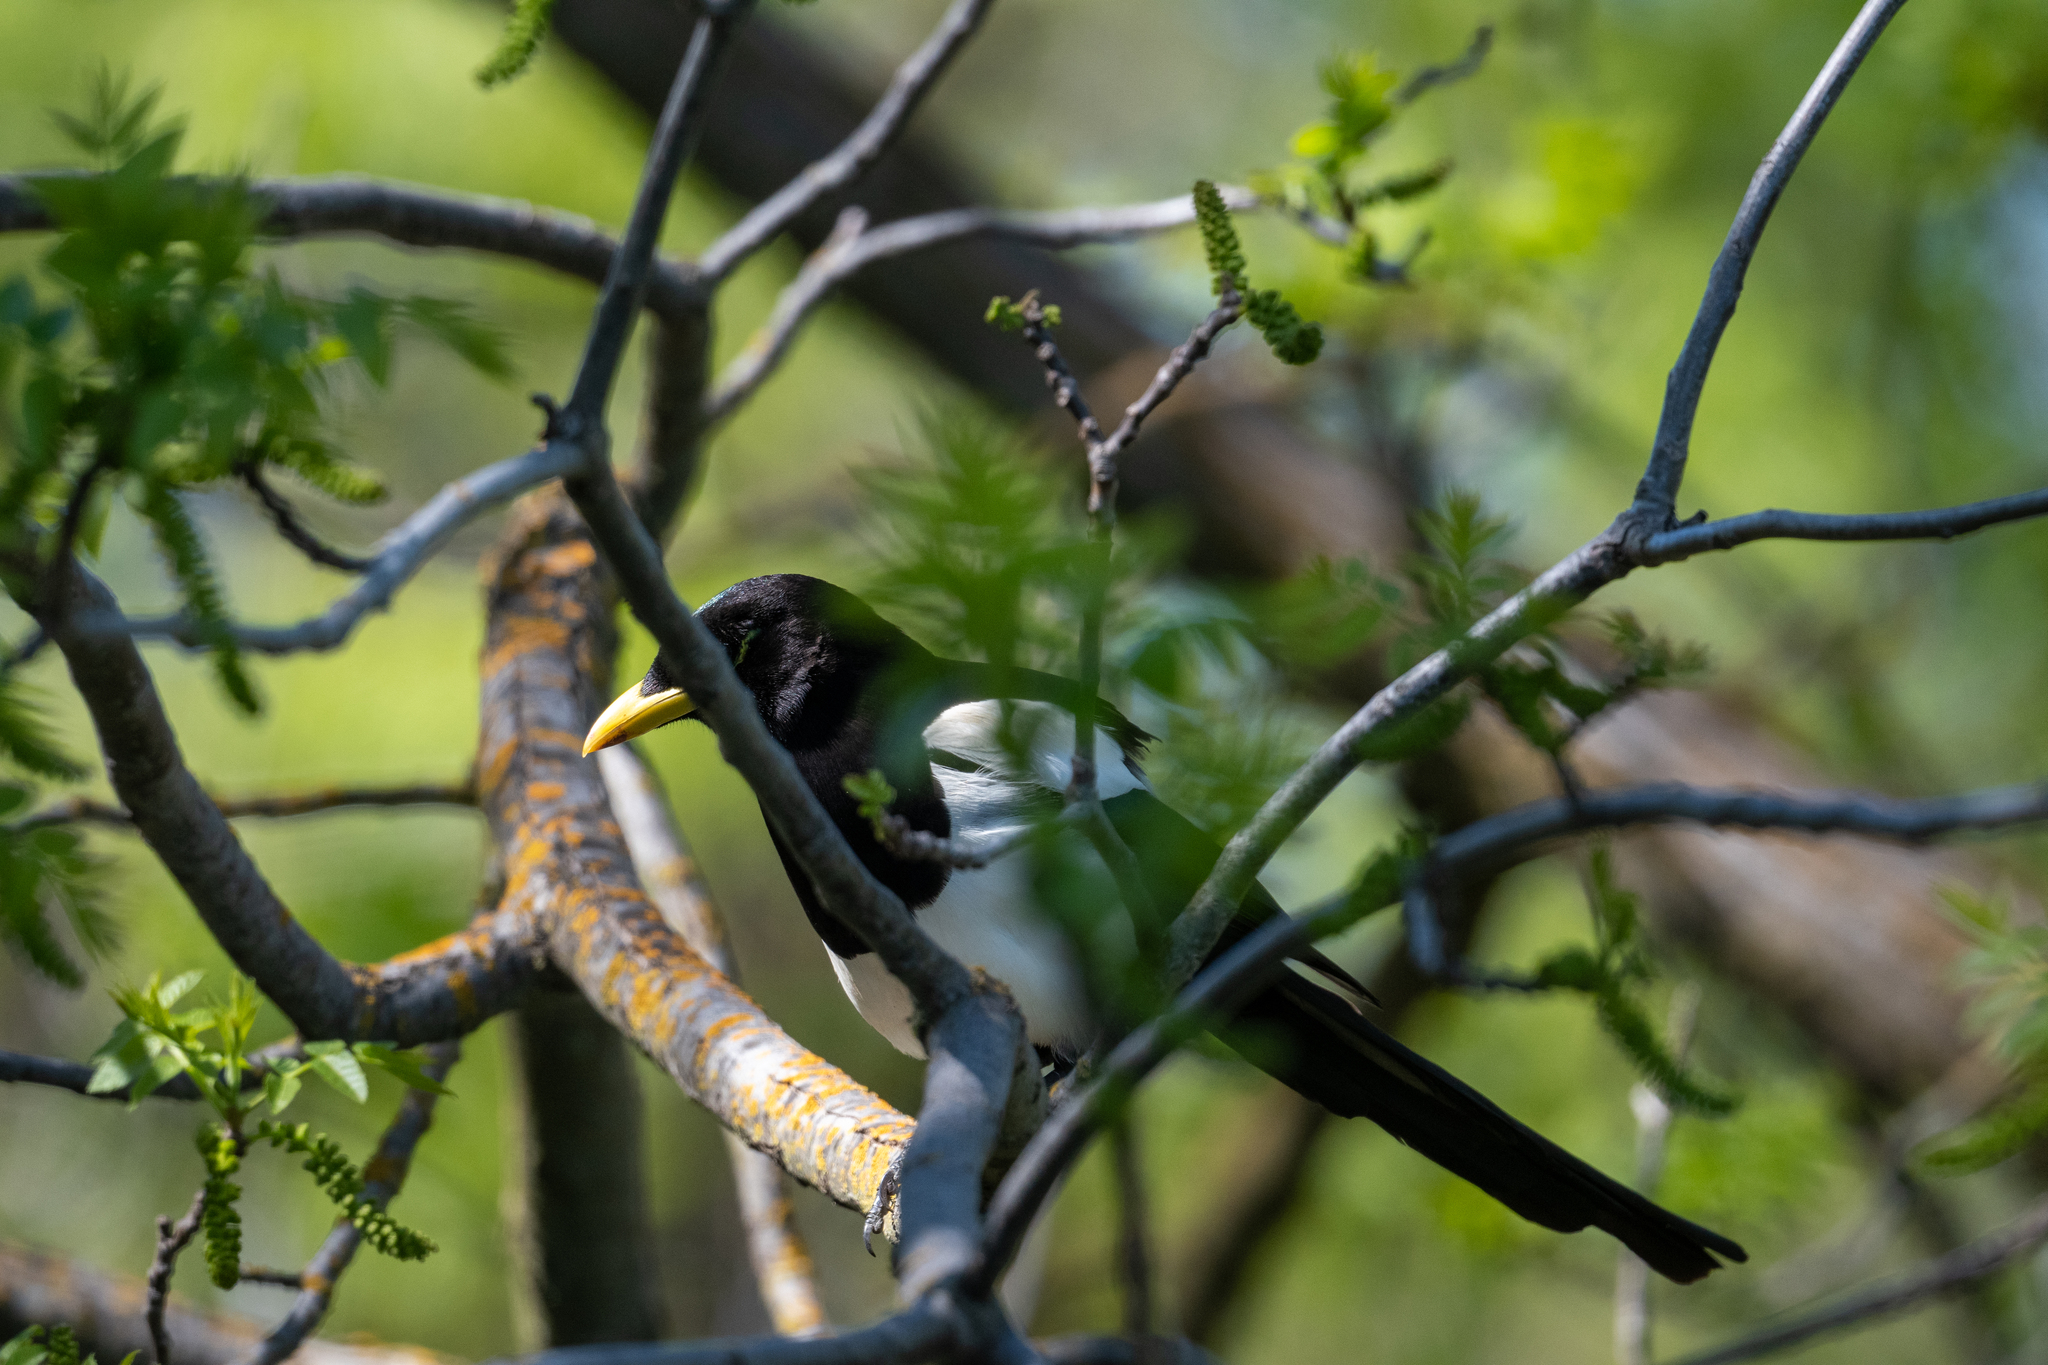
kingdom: Animalia
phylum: Chordata
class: Aves
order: Passeriformes
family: Corvidae
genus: Pica
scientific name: Pica nuttalli
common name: Yellow-billed magpie
